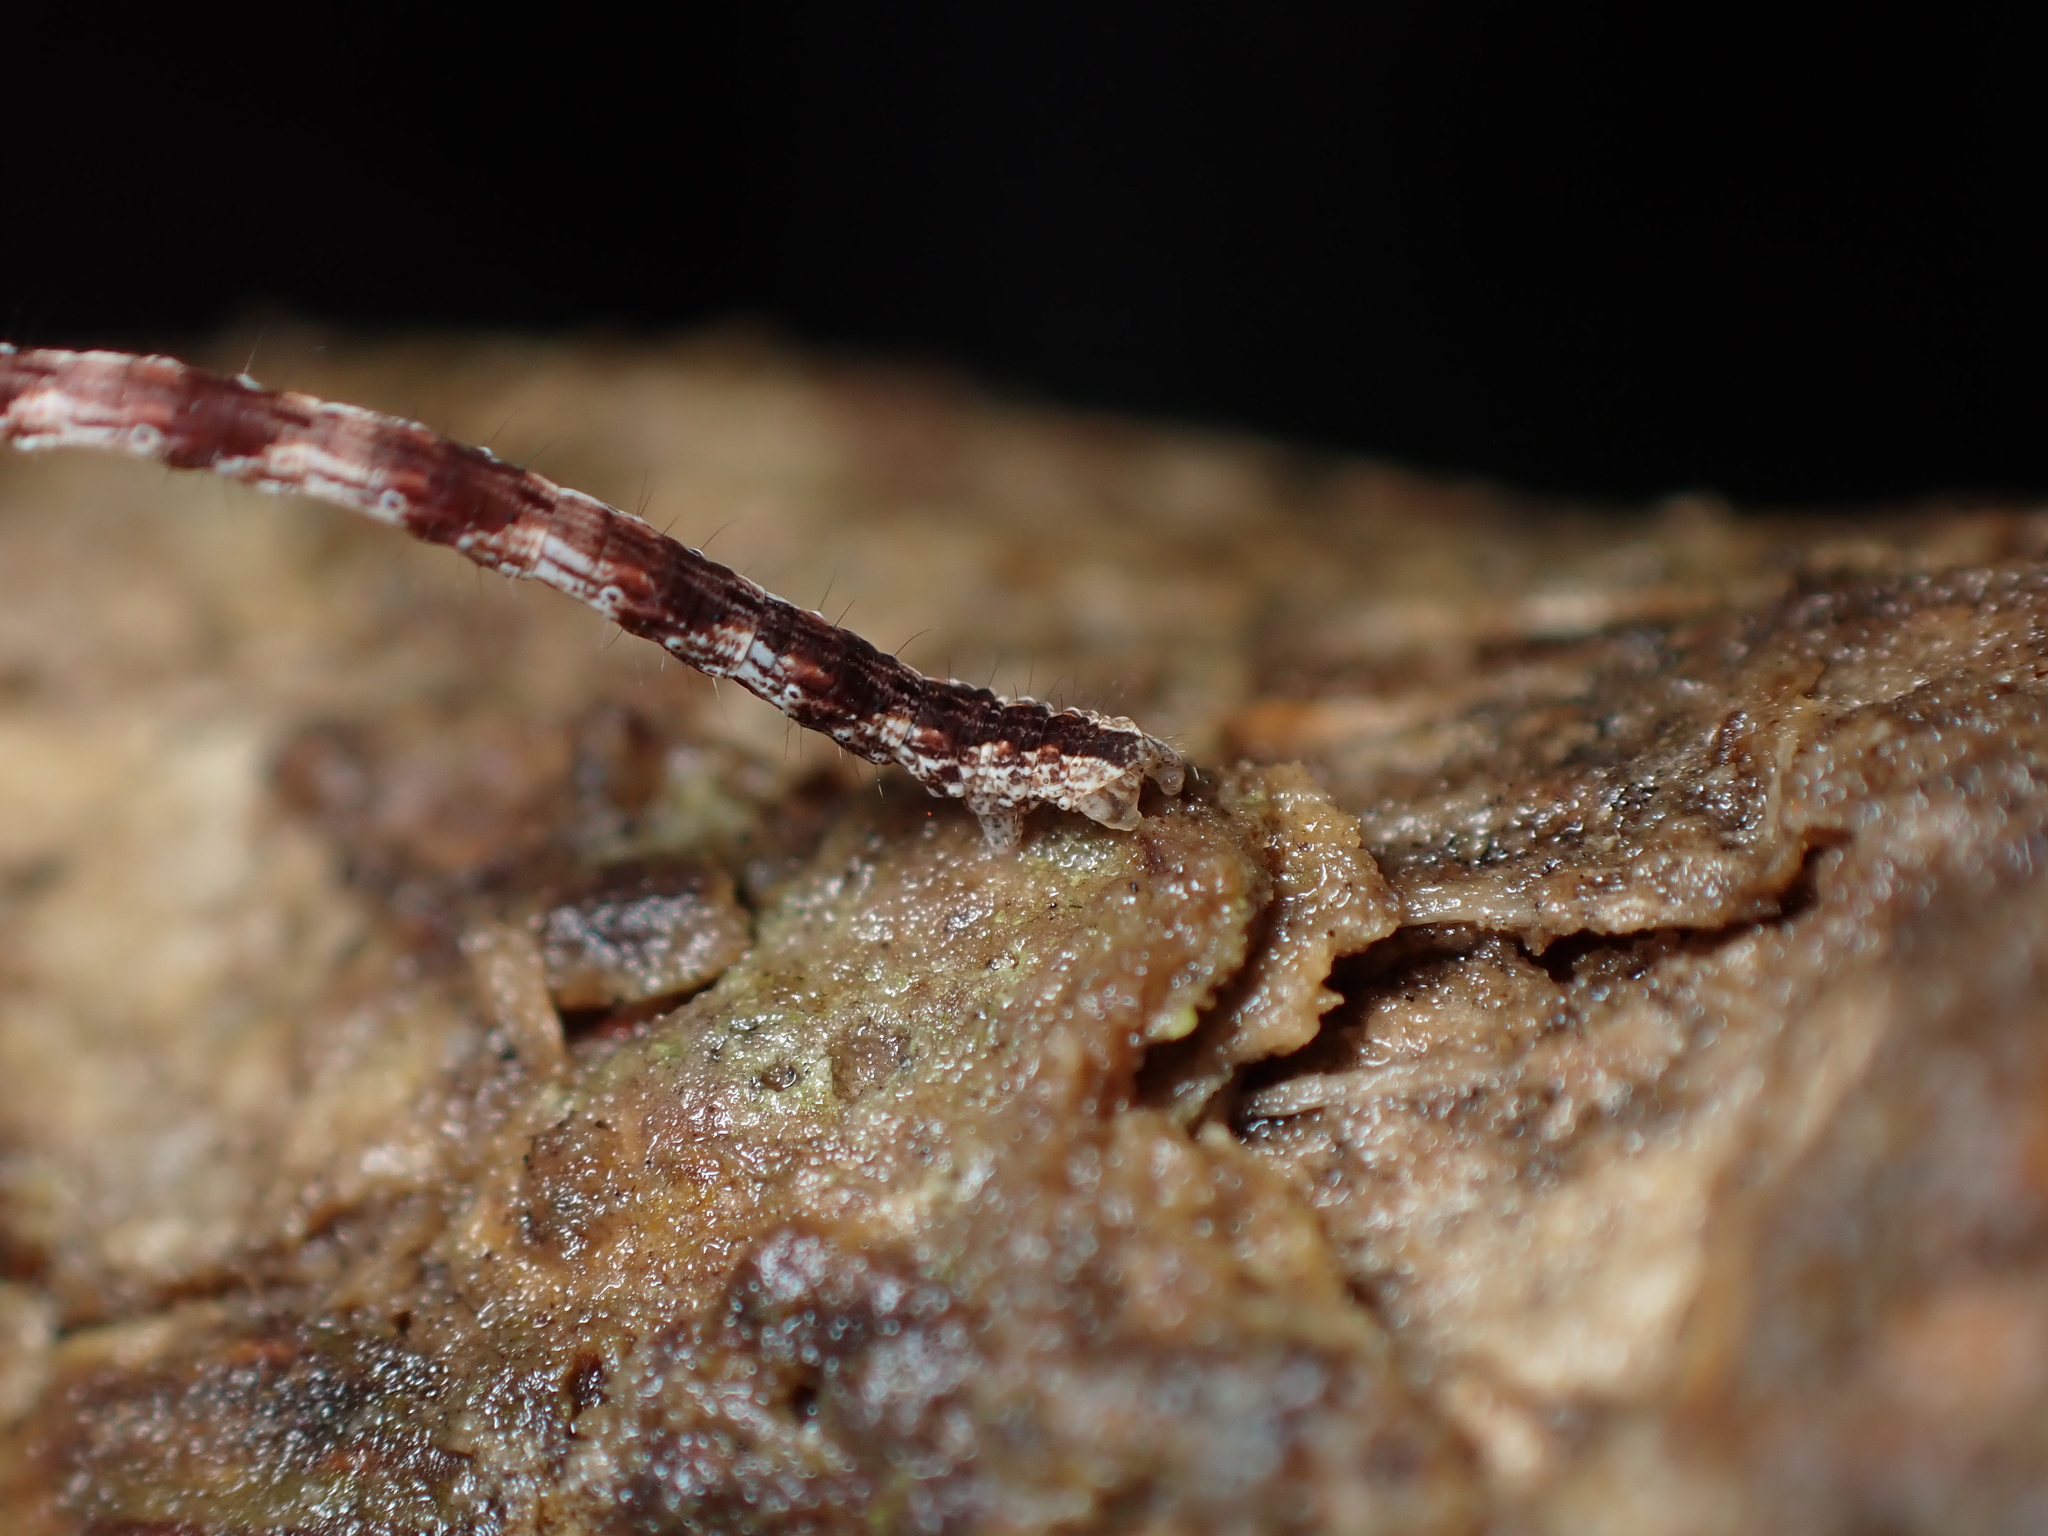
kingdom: Animalia
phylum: Arthropoda
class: Insecta
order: Lepidoptera
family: Geometridae
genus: Sarisa
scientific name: Sarisa muriferata
